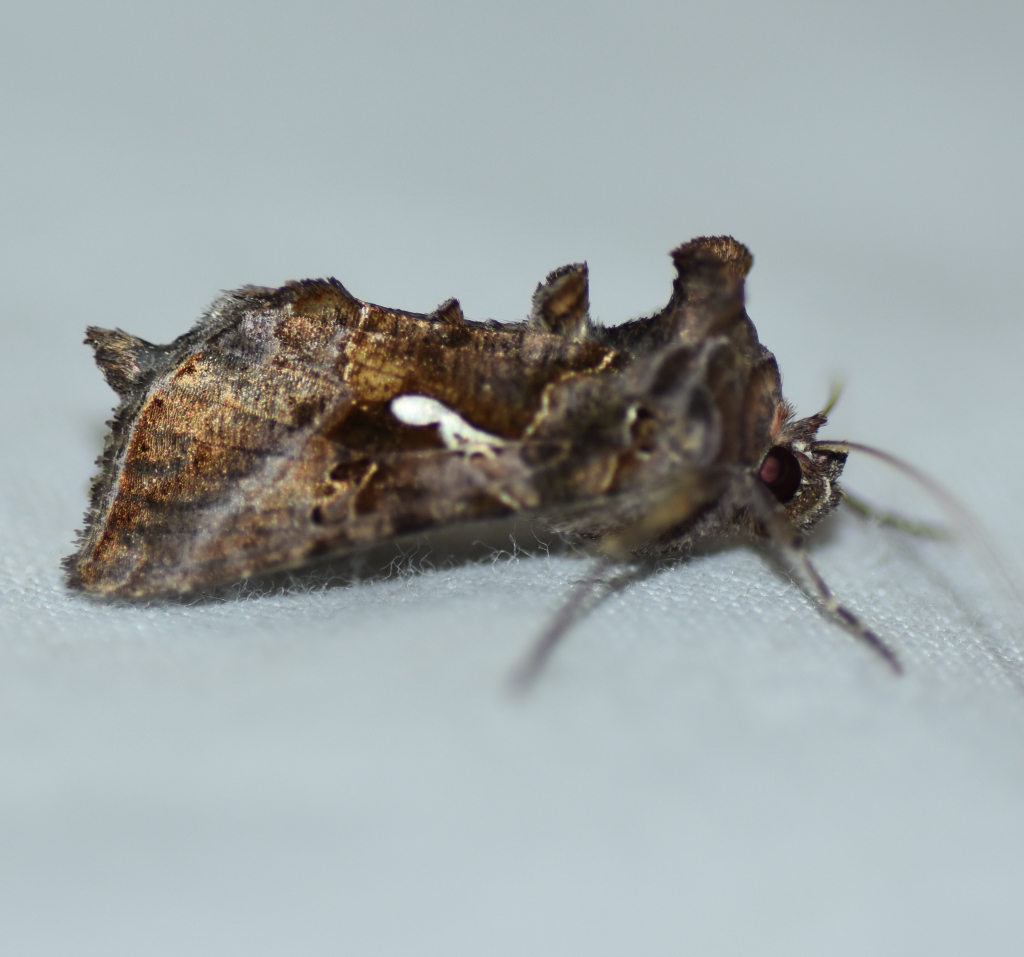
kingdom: Animalia
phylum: Arthropoda
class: Insecta
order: Lepidoptera
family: Noctuidae
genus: Autographa
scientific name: Autographa precationis
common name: Common looper moth
